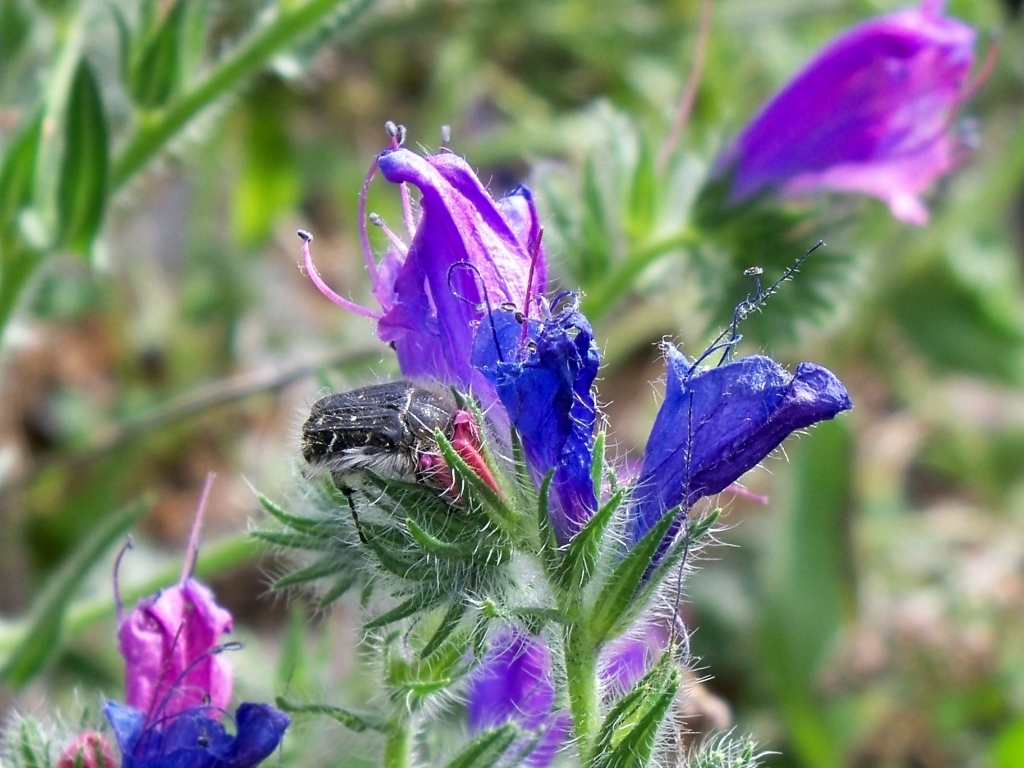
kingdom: Plantae
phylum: Tracheophyta
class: Magnoliopsida
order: Boraginales
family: Boraginaceae
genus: Echium
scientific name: Echium plantagineum
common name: Purple viper's-bugloss
